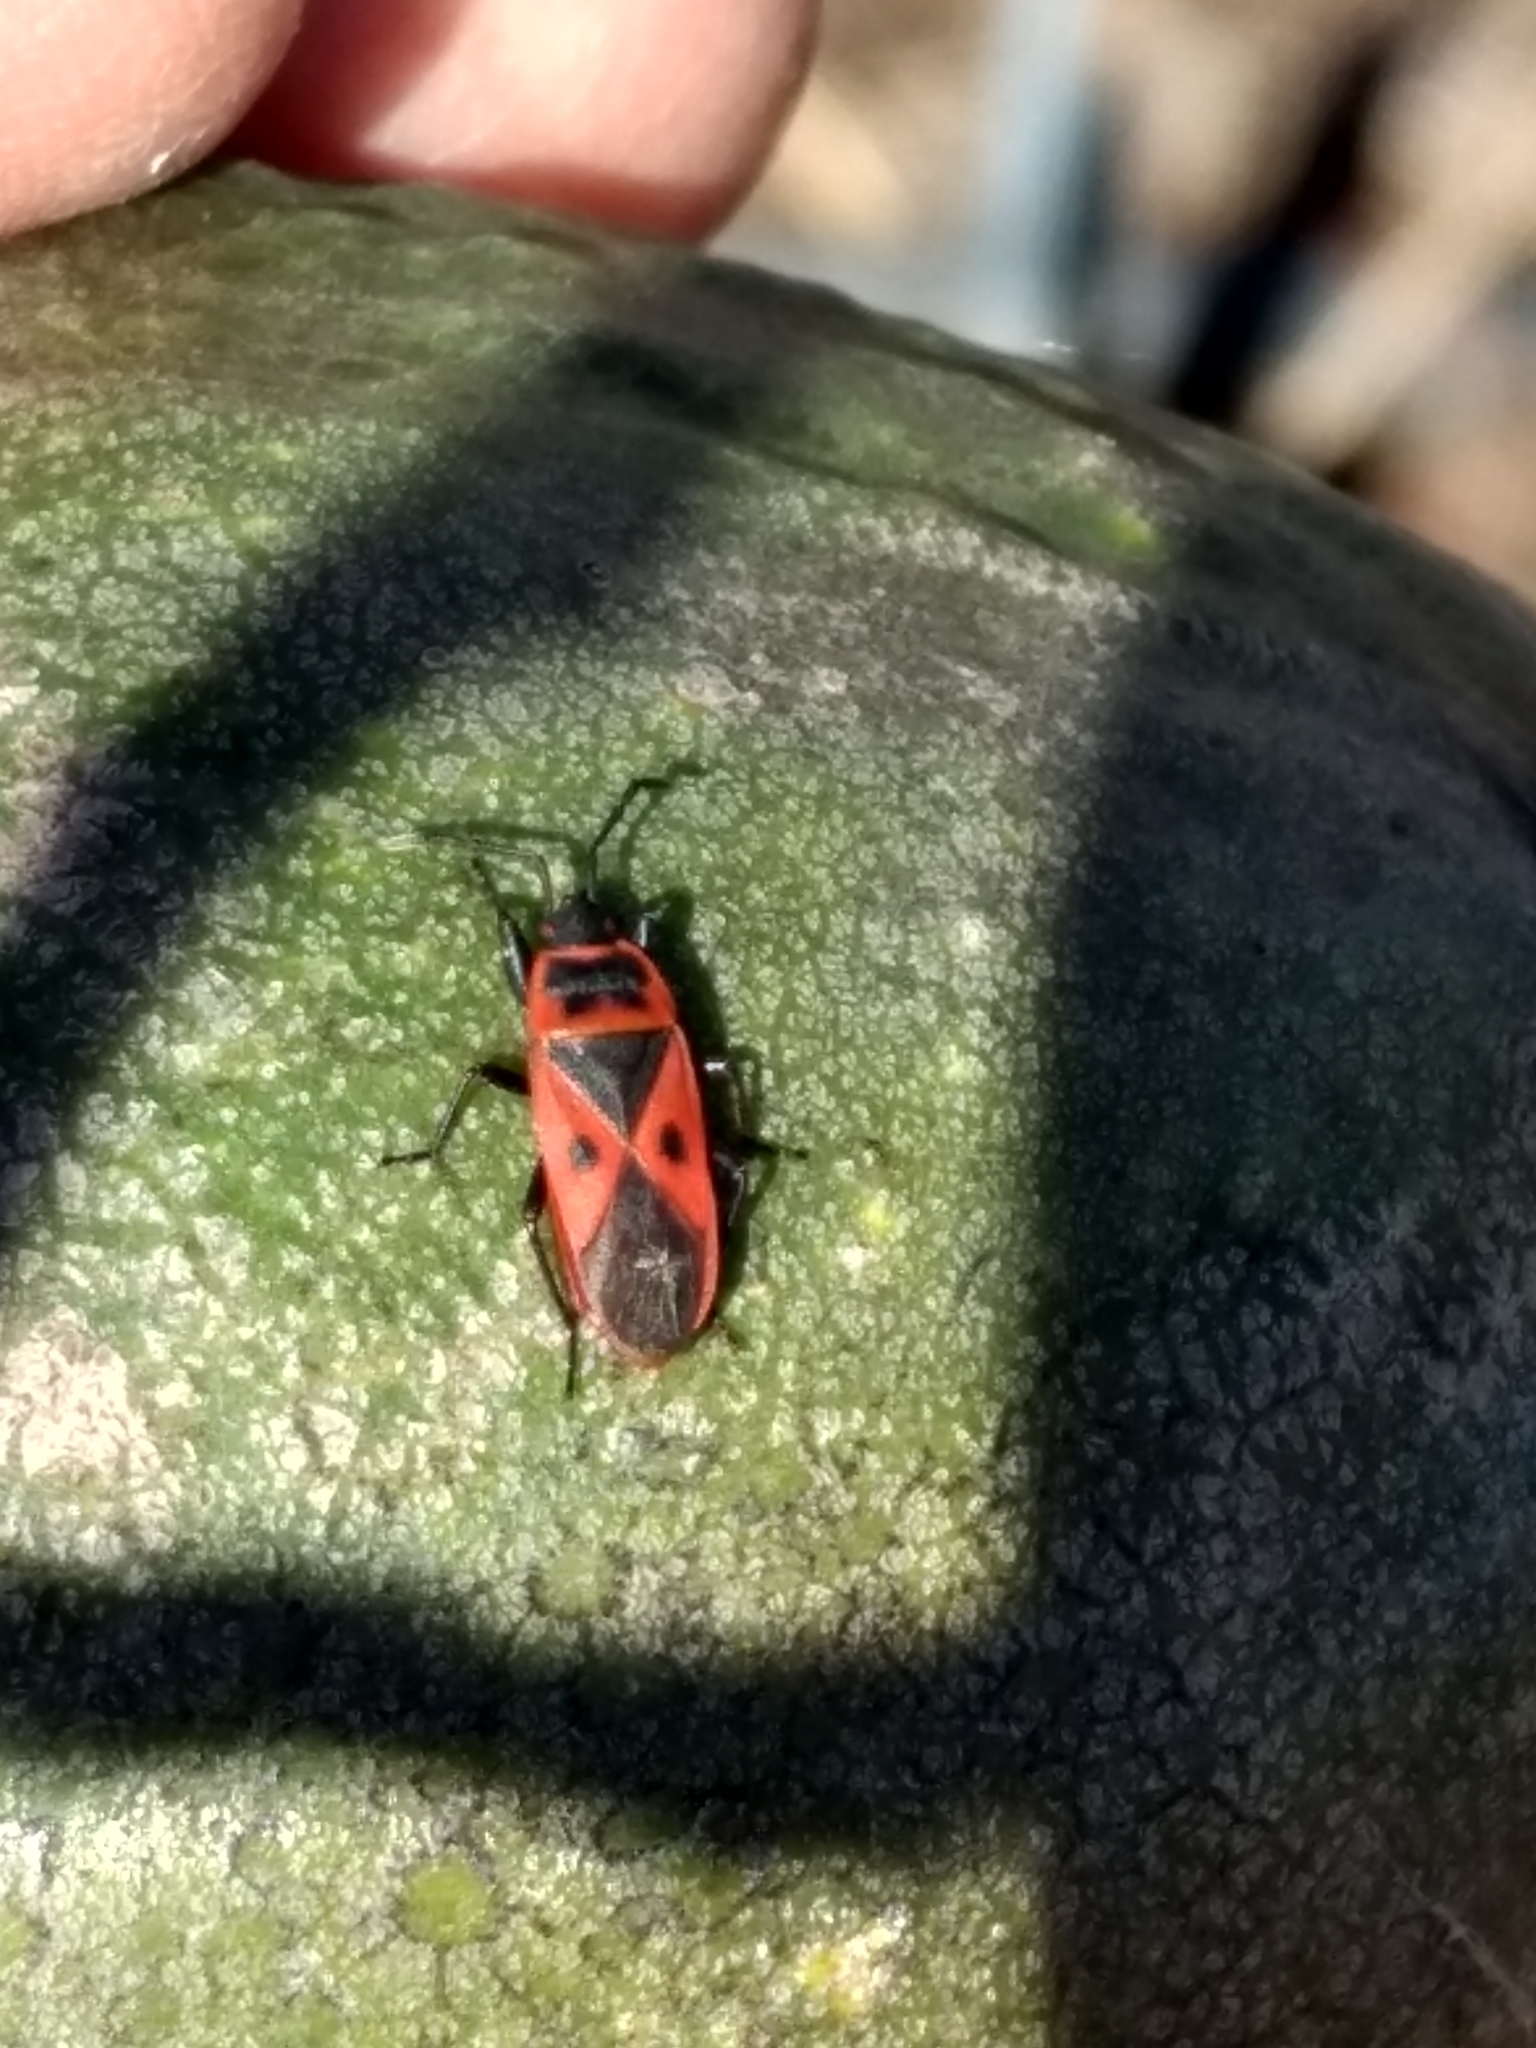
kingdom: Animalia
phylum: Arthropoda
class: Insecta
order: Hemiptera
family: Pyrrhocoridae
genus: Scantius
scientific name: Scantius aegyptius
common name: Red bug
